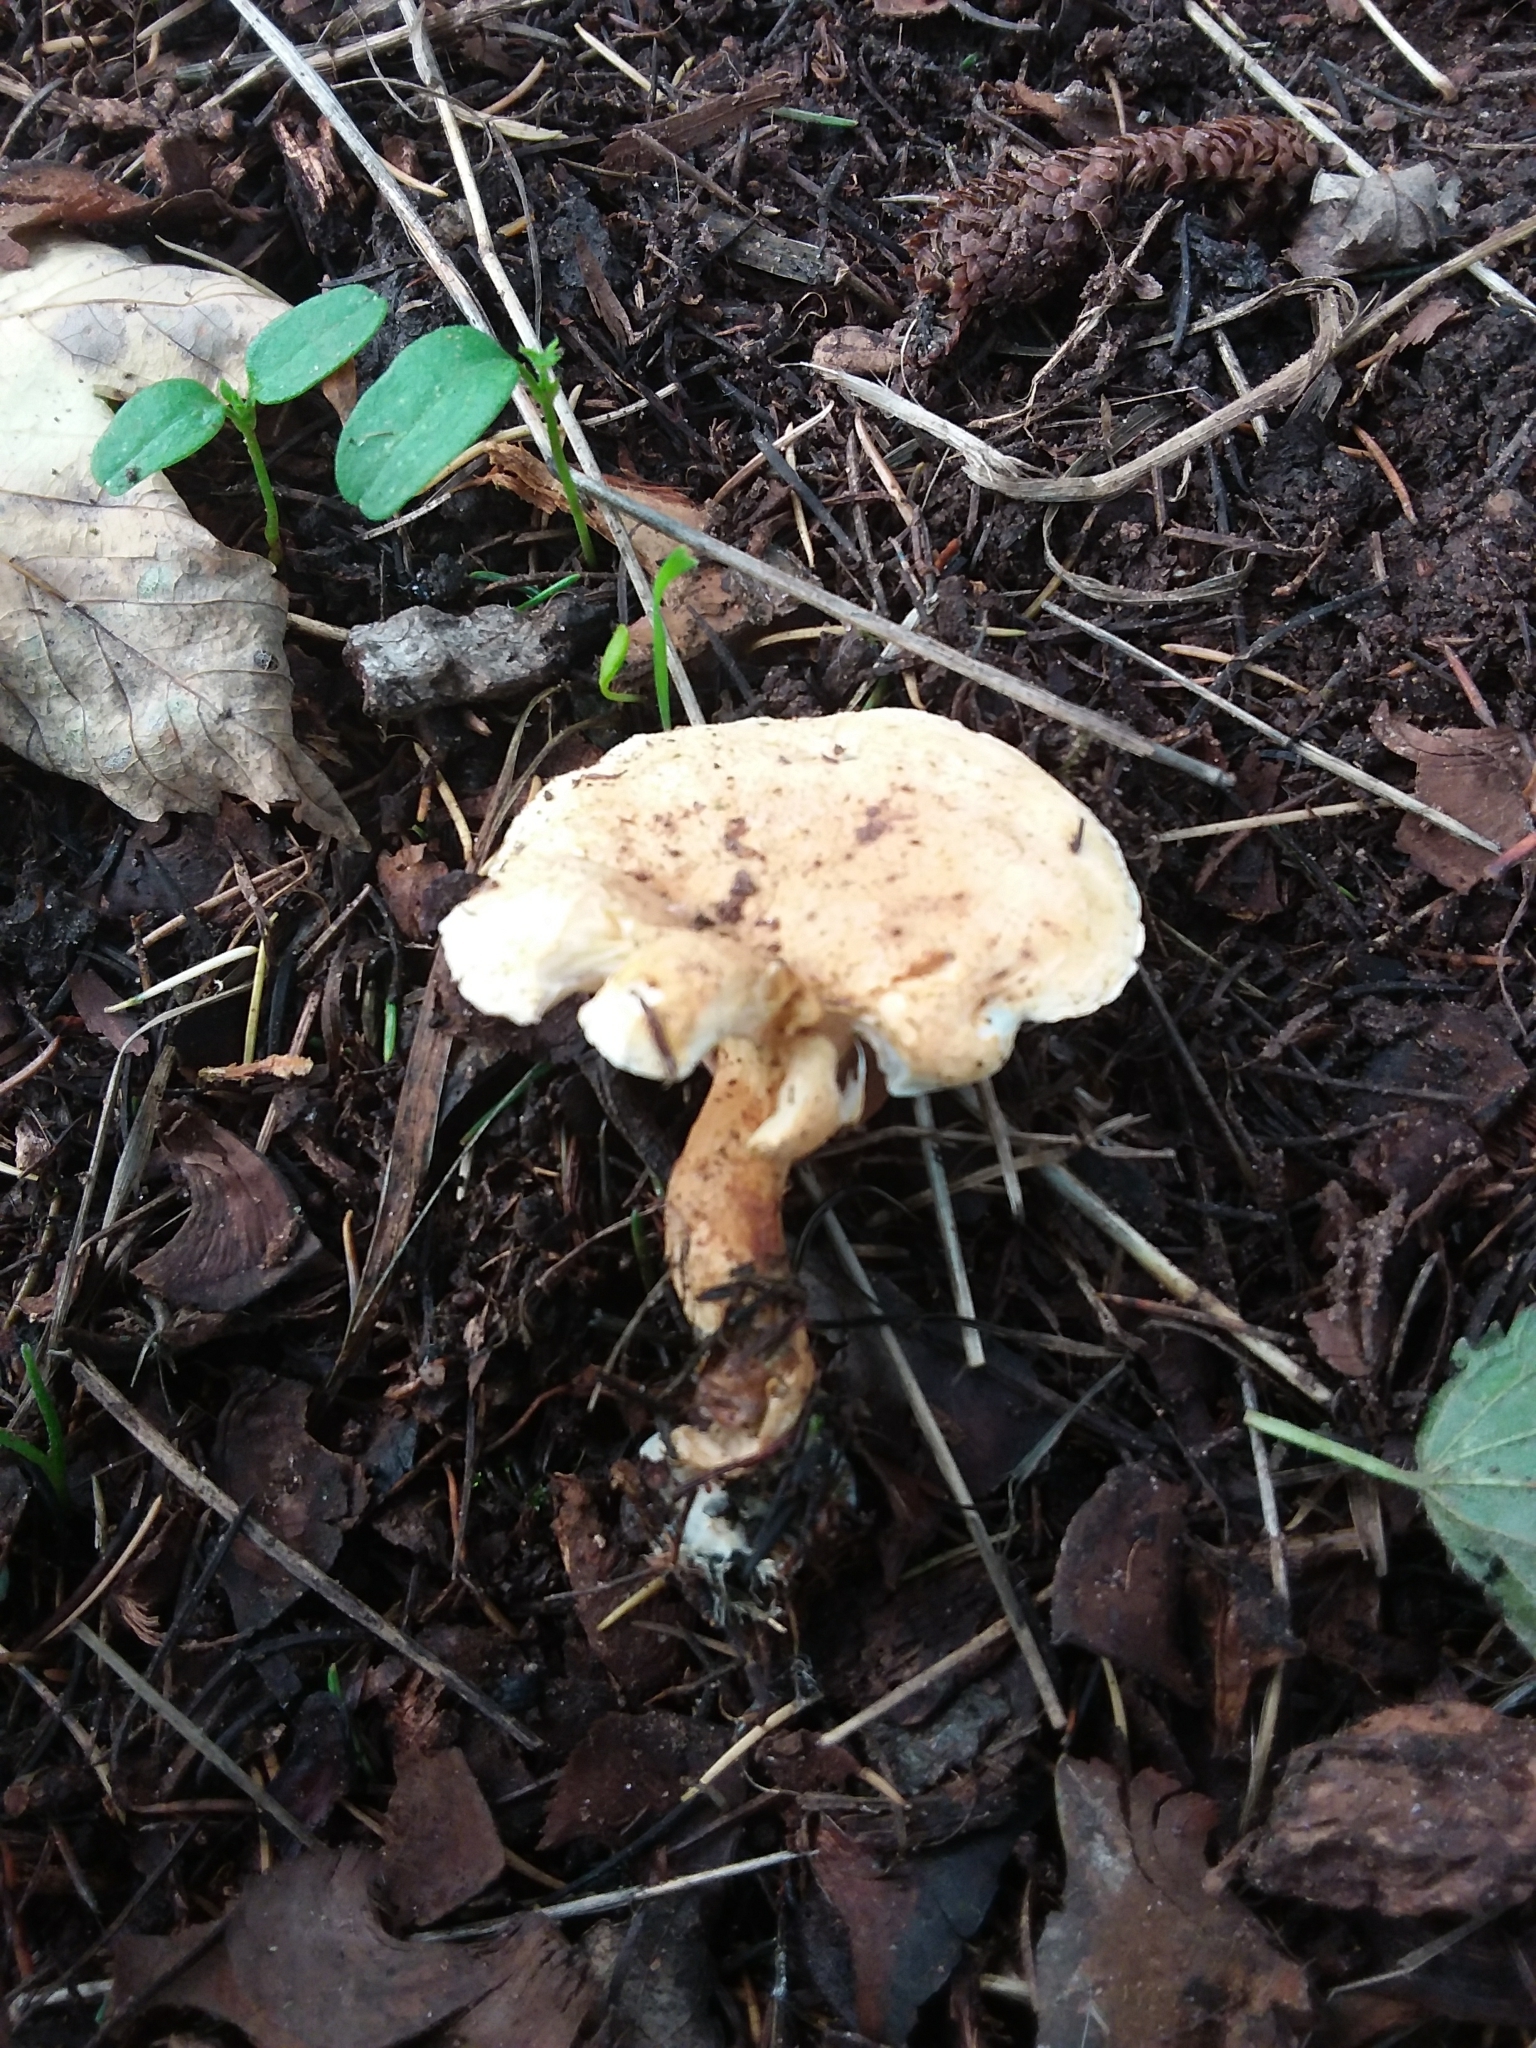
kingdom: Fungi
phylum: Basidiomycota
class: Agaricomycetes
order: Boletales
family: Hygrophoropsidaceae
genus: Hygrophoropsis
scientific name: Hygrophoropsis aurantiaca
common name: False chanterelle
